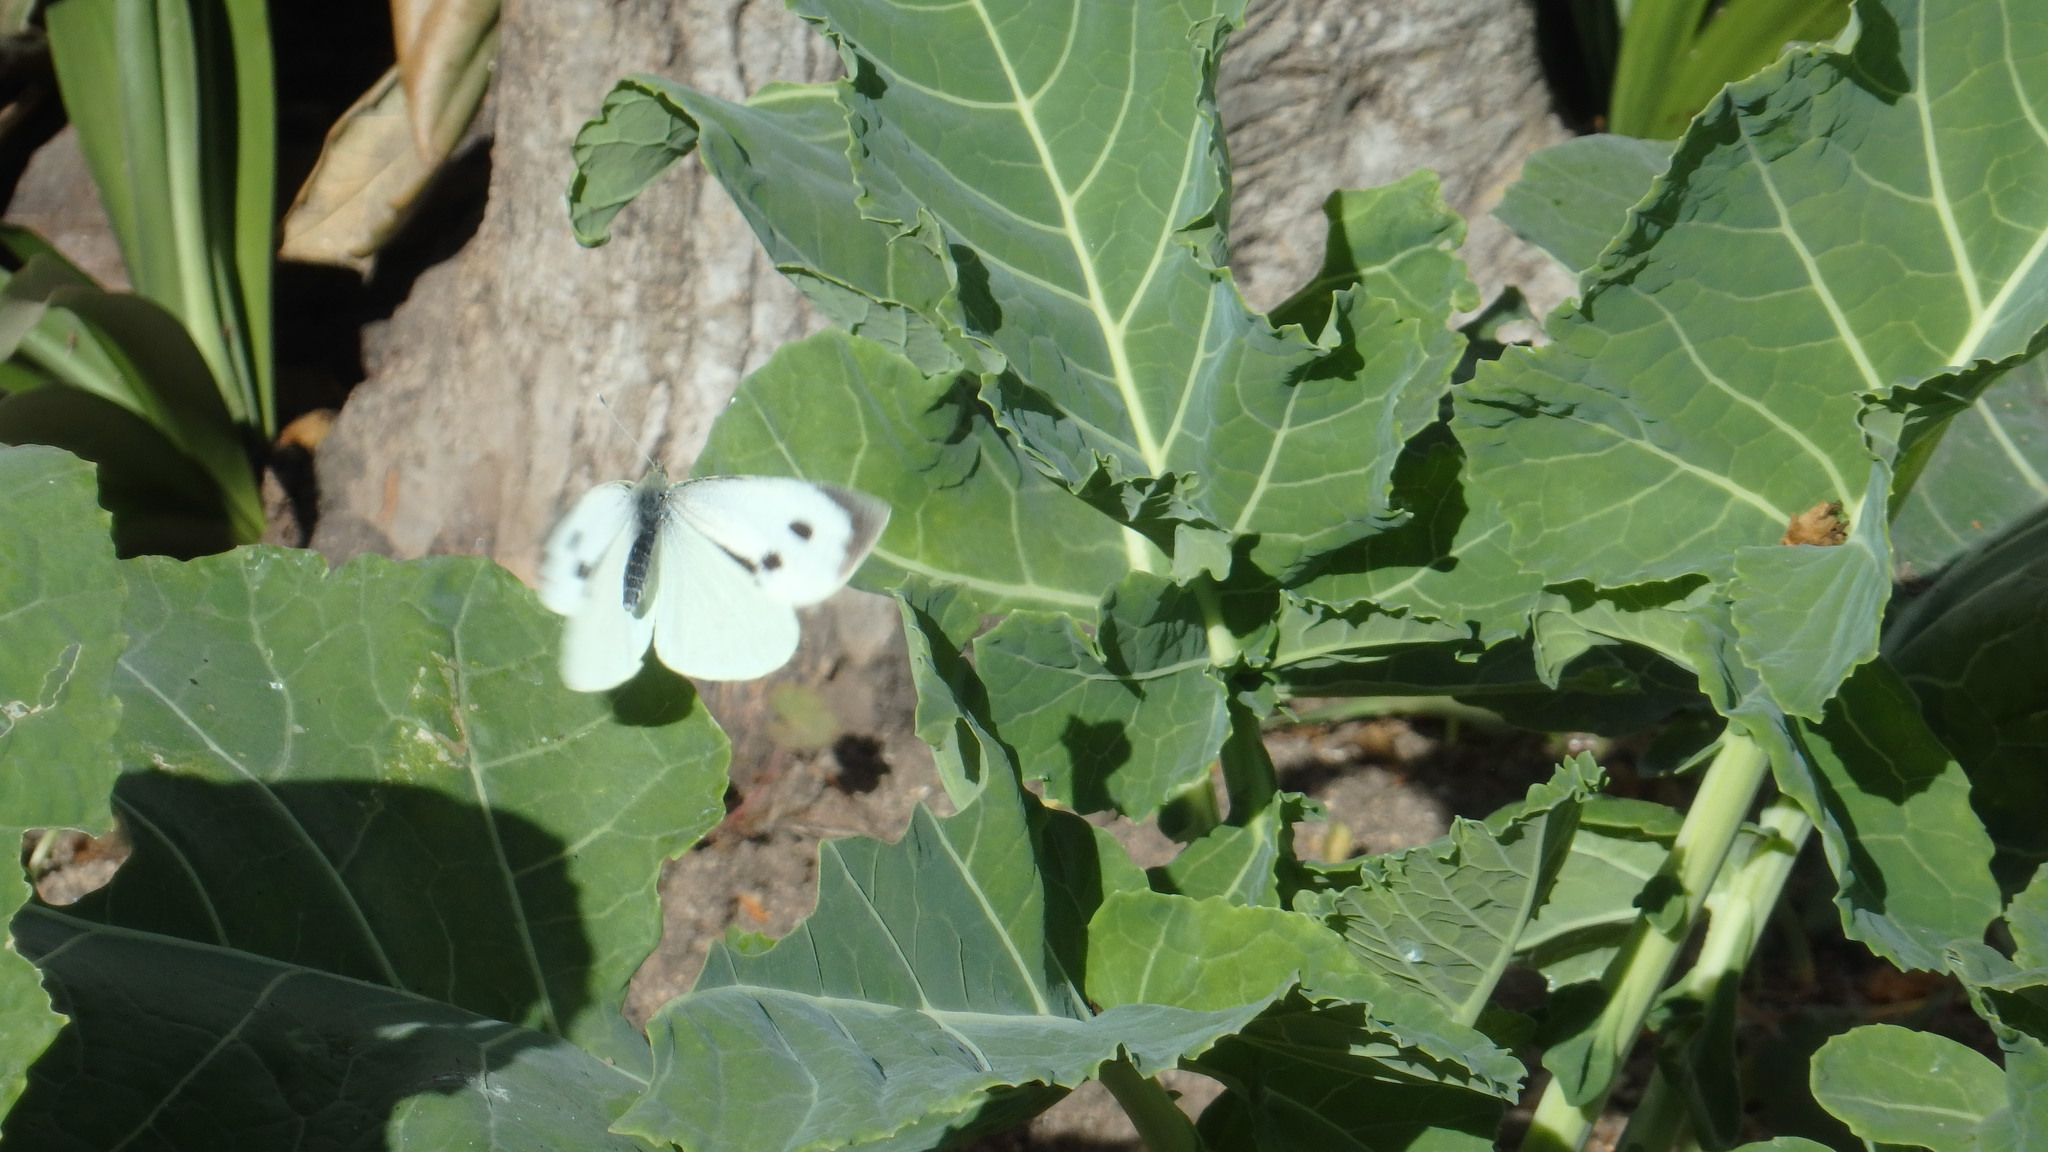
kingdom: Animalia
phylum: Arthropoda
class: Insecta
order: Lepidoptera
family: Pieridae
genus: Pieris
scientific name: Pieris brassicae
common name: Large white
